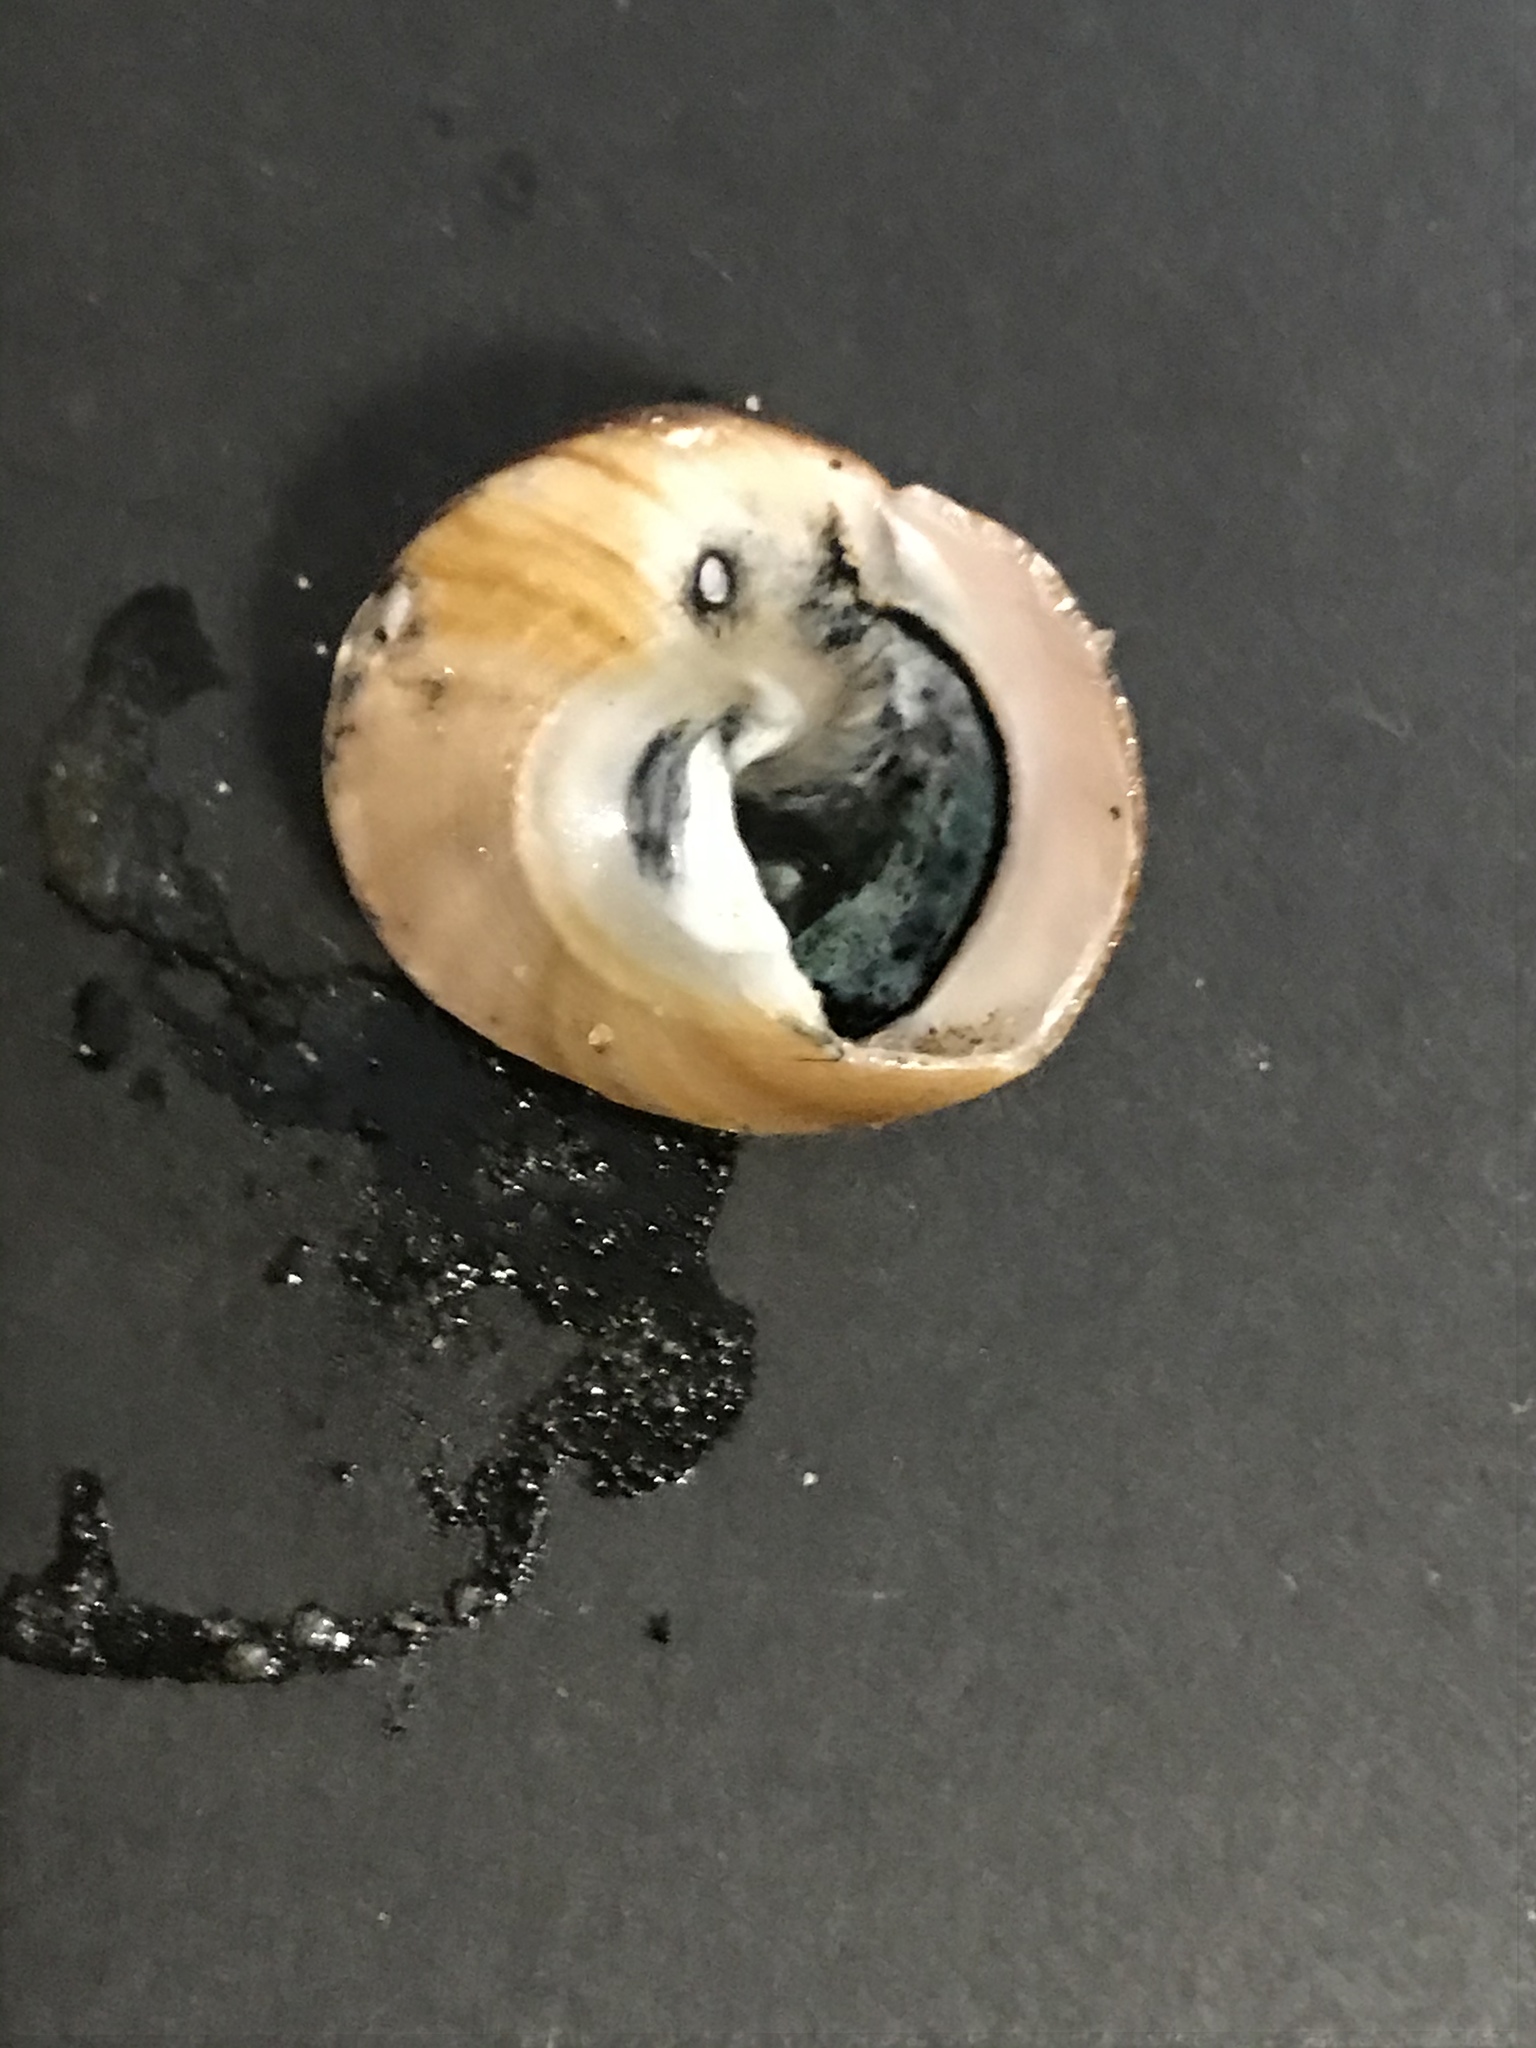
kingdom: Animalia
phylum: Mollusca
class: Gastropoda
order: Trochida
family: Tegulidae
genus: Tegula
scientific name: Tegula brunnea
